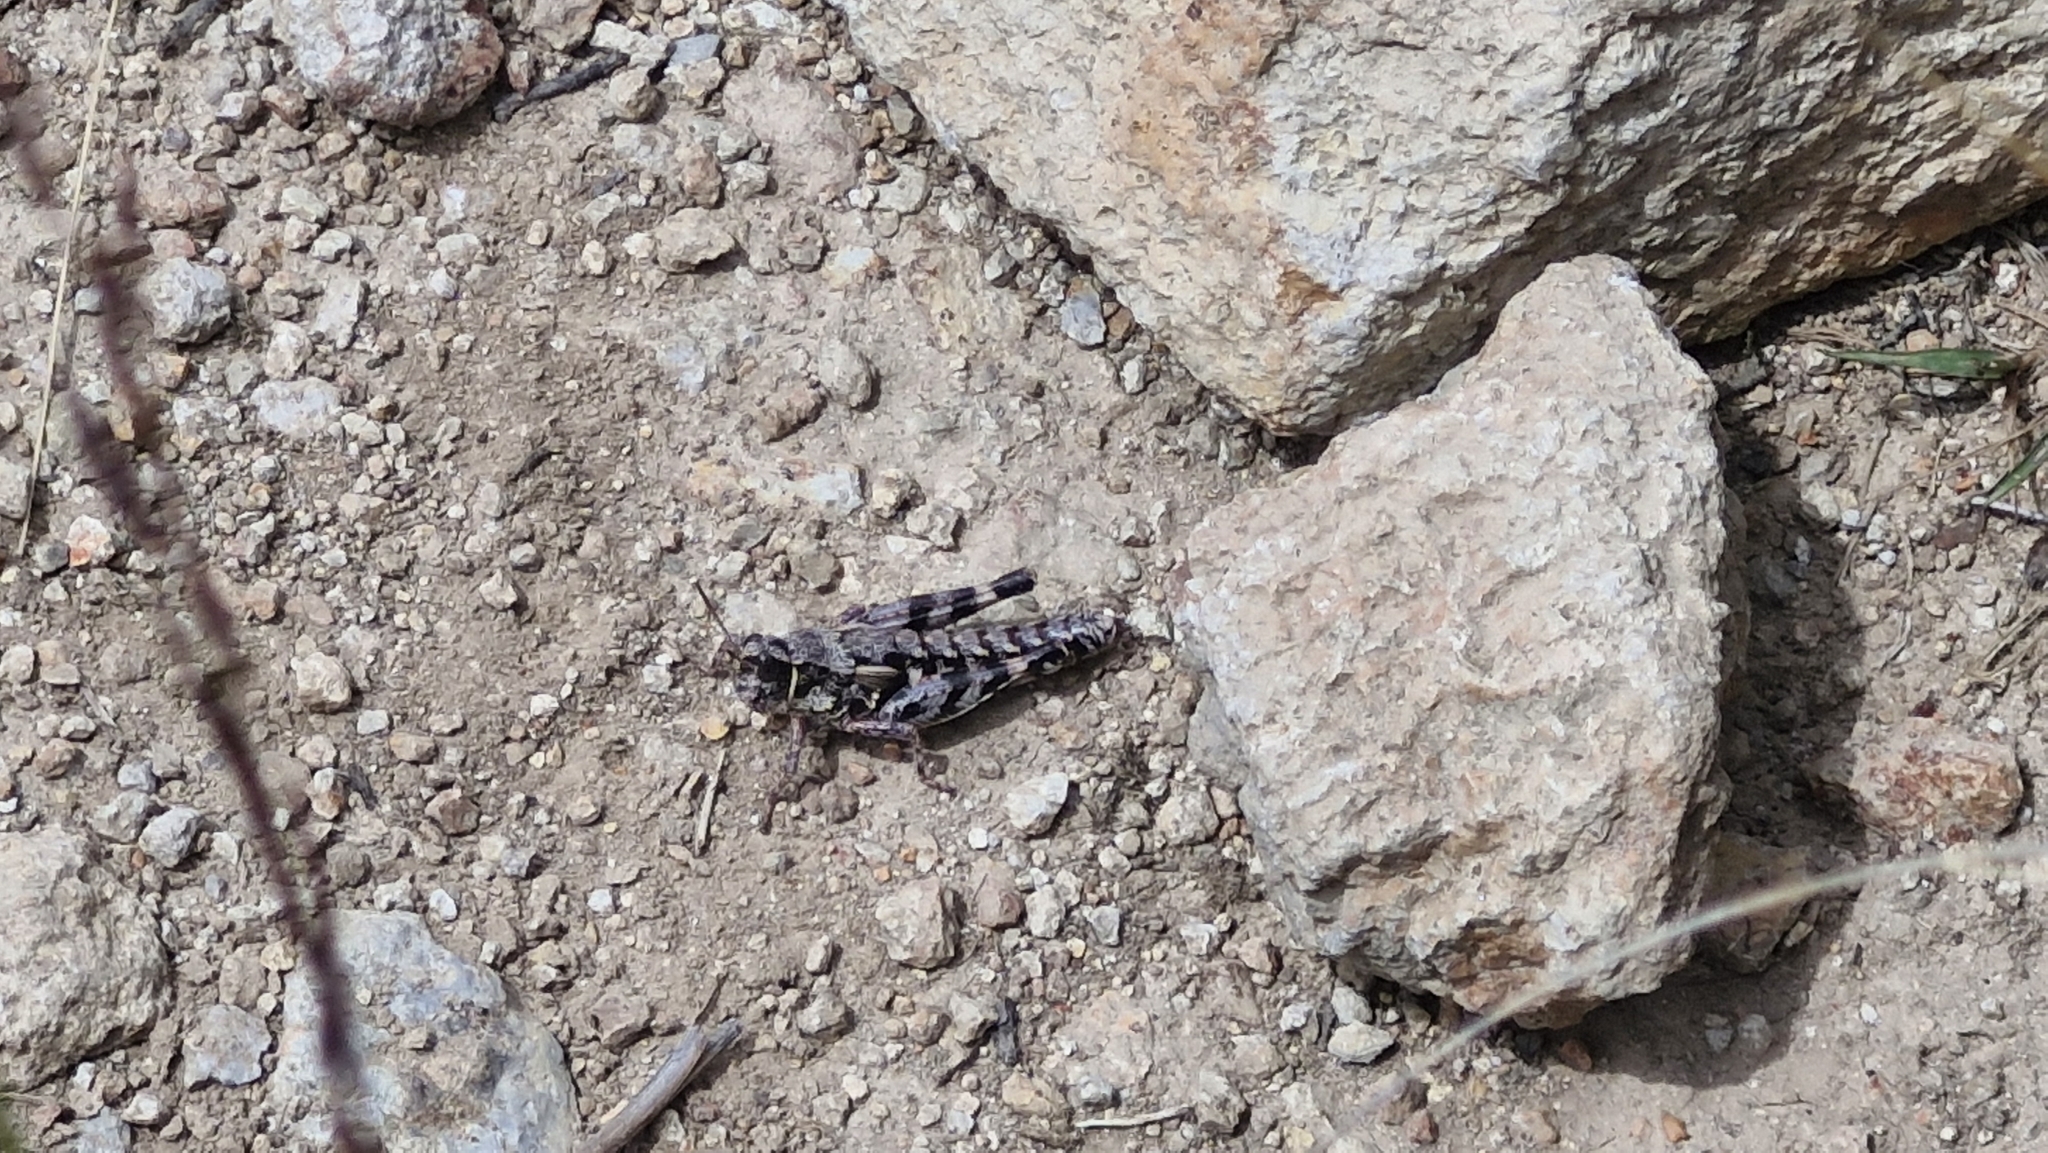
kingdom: Animalia
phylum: Arthropoda
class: Insecta
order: Orthoptera
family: Acrididae
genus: Sigaus
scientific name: Sigaus australis
